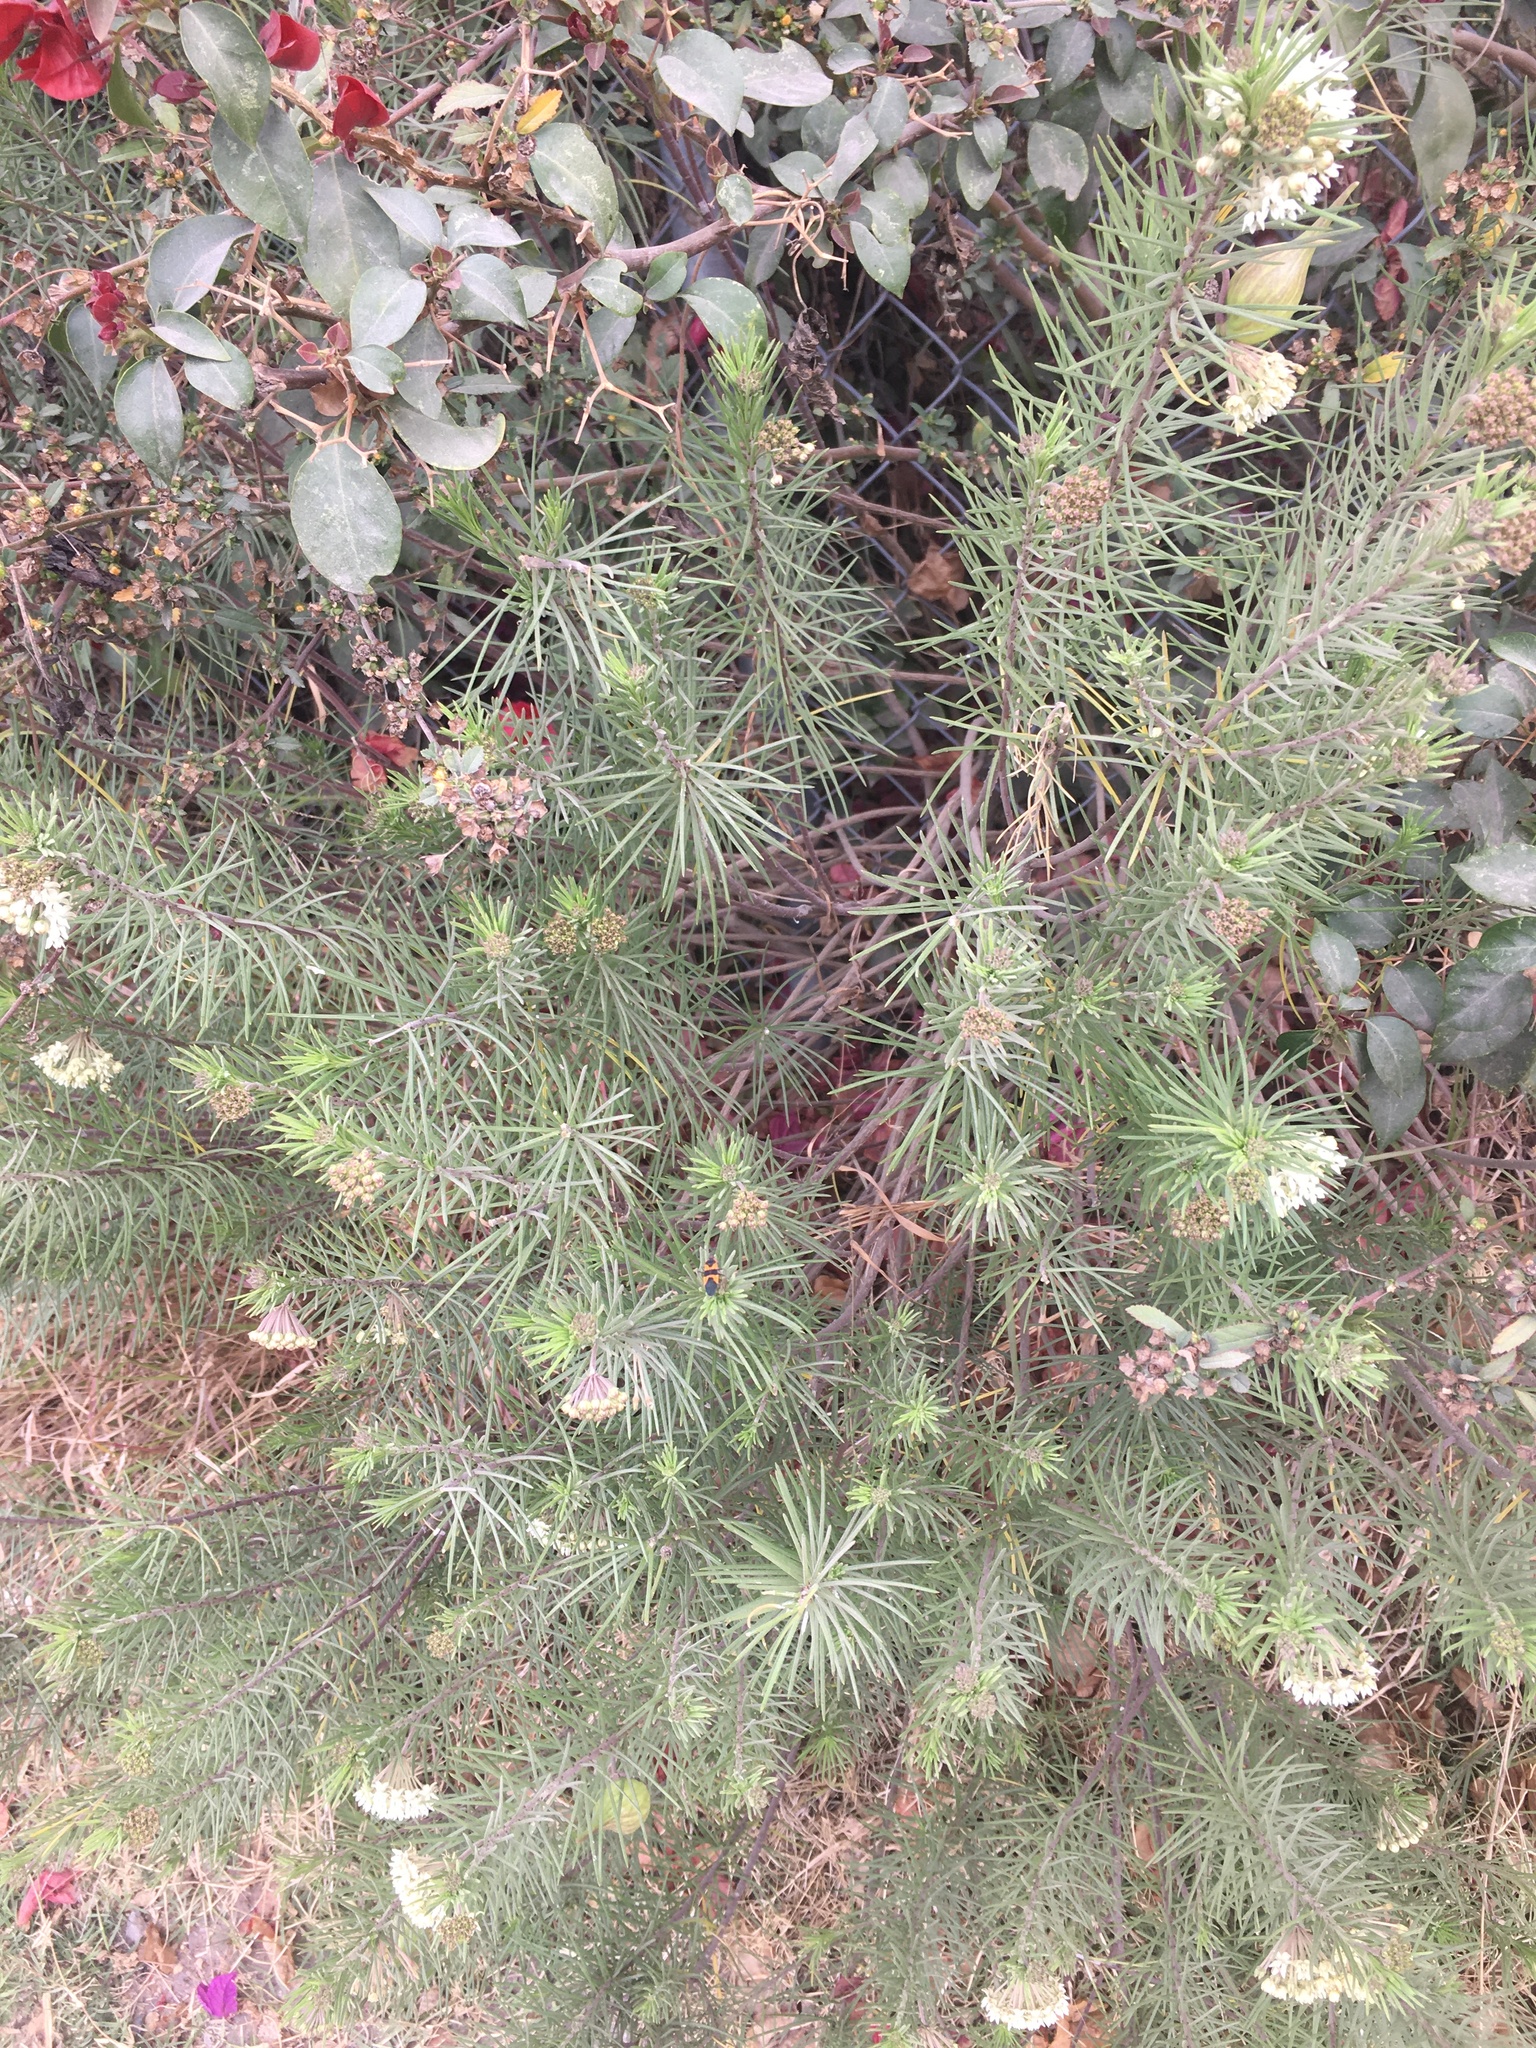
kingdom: Plantae
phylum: Tracheophyta
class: Magnoliopsida
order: Gentianales
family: Apocynaceae
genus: Asclepias
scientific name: Asclepias linaria
